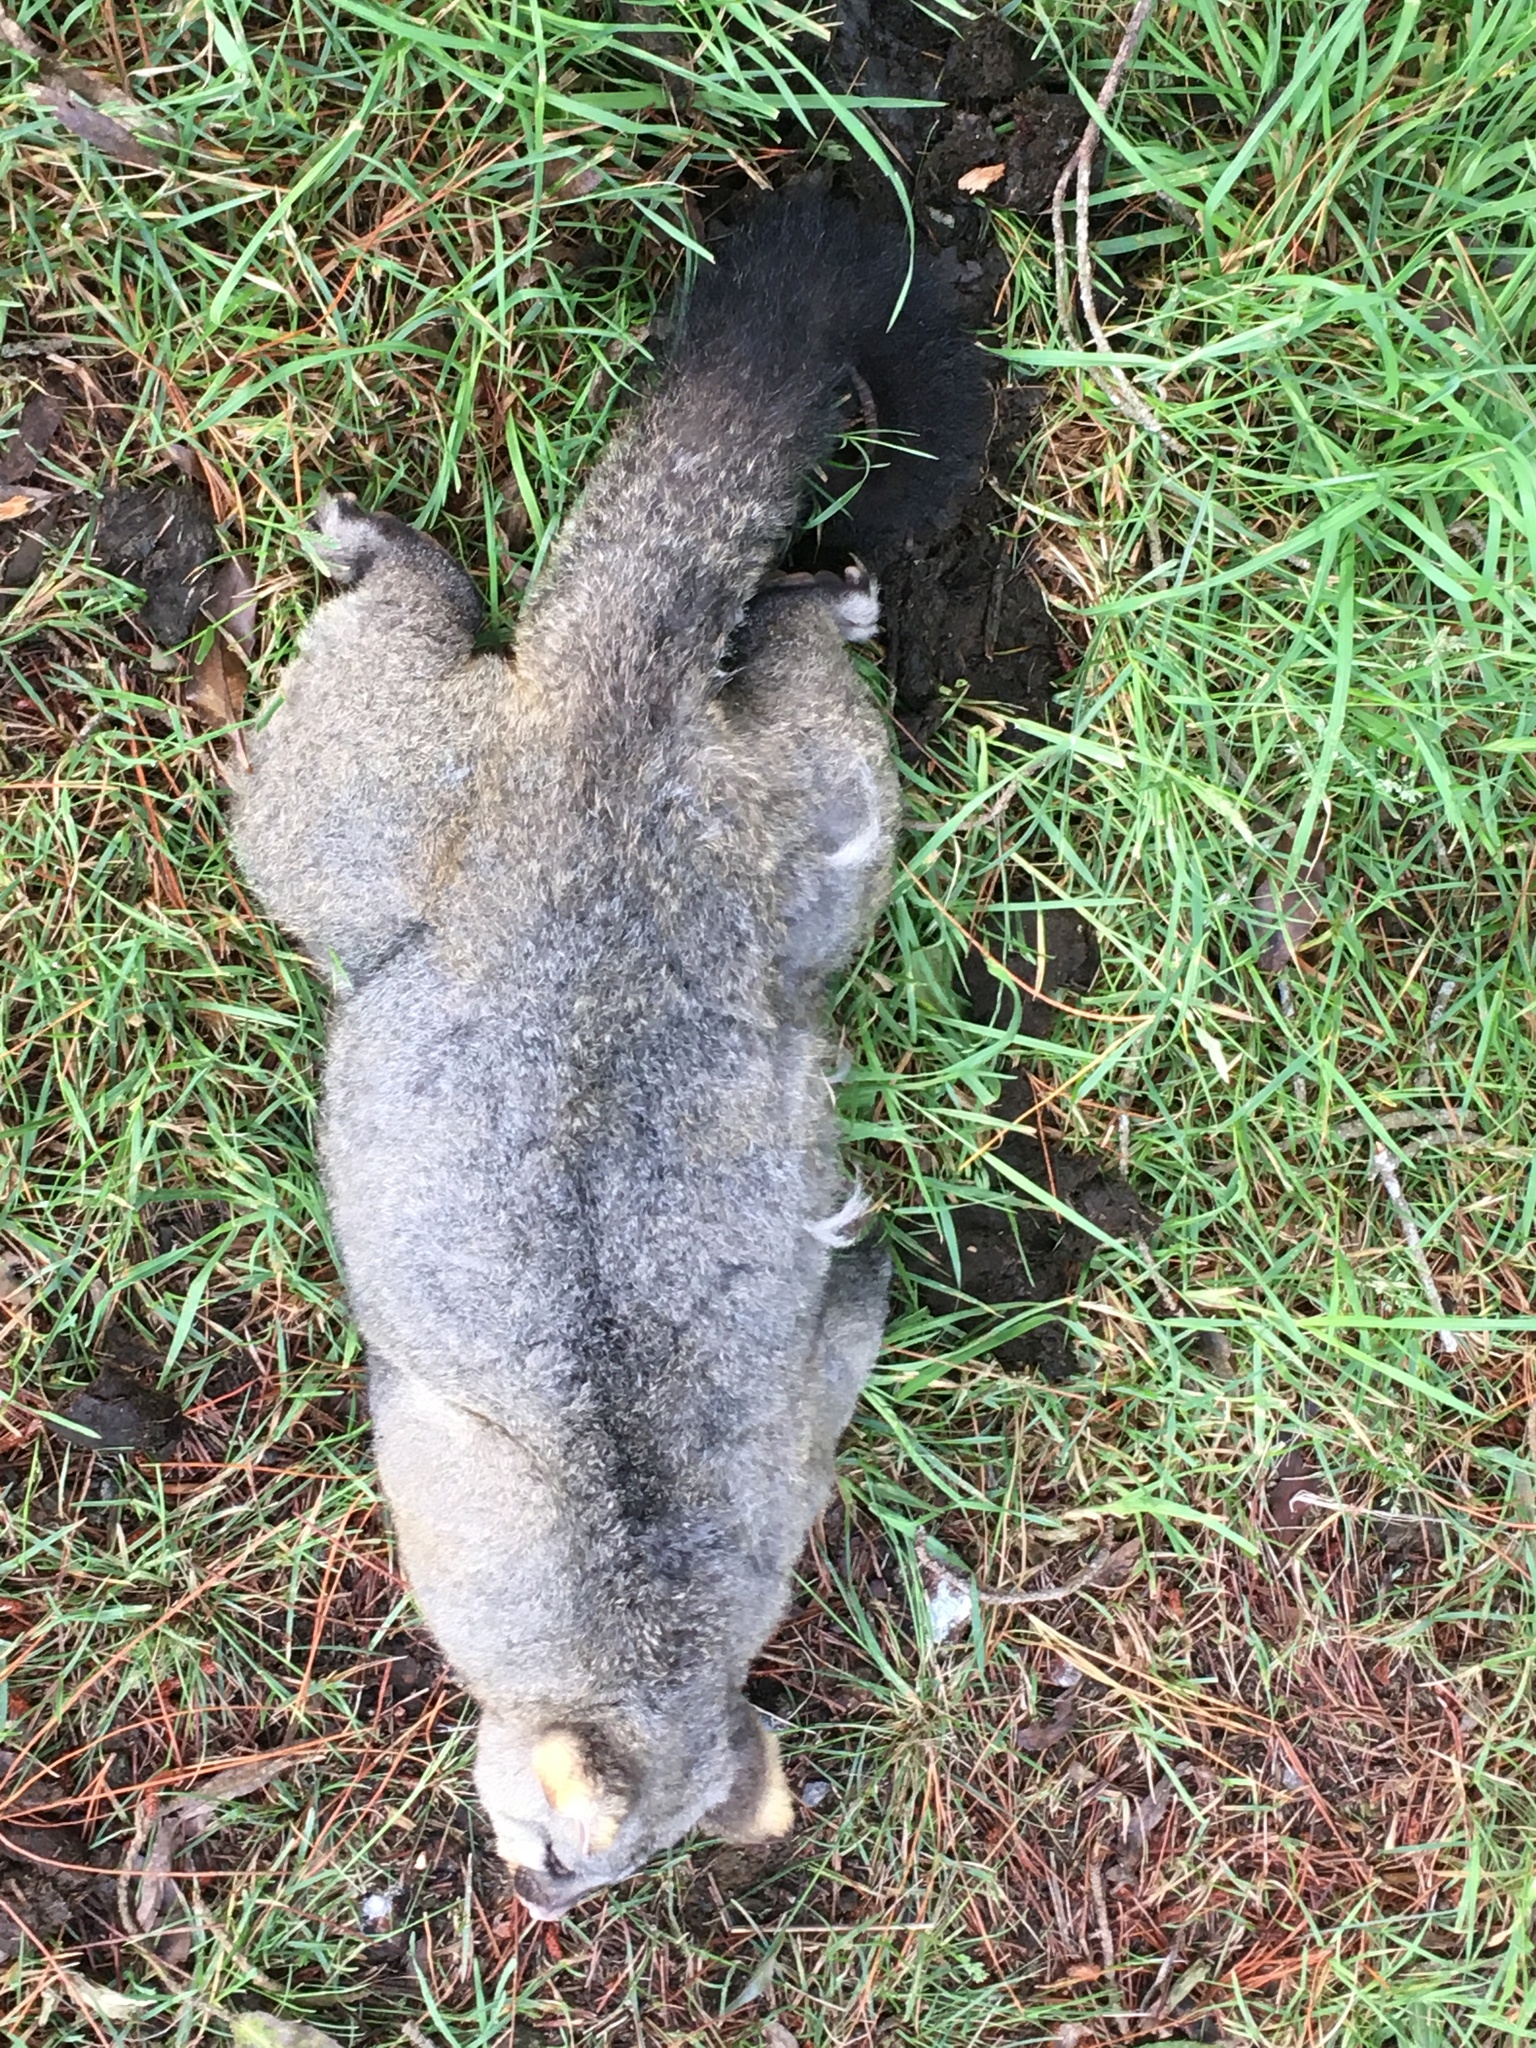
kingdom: Animalia
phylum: Chordata
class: Mammalia
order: Diprotodontia
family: Phalangeridae
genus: Trichosurus
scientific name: Trichosurus vulpecula
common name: Common brushtail
